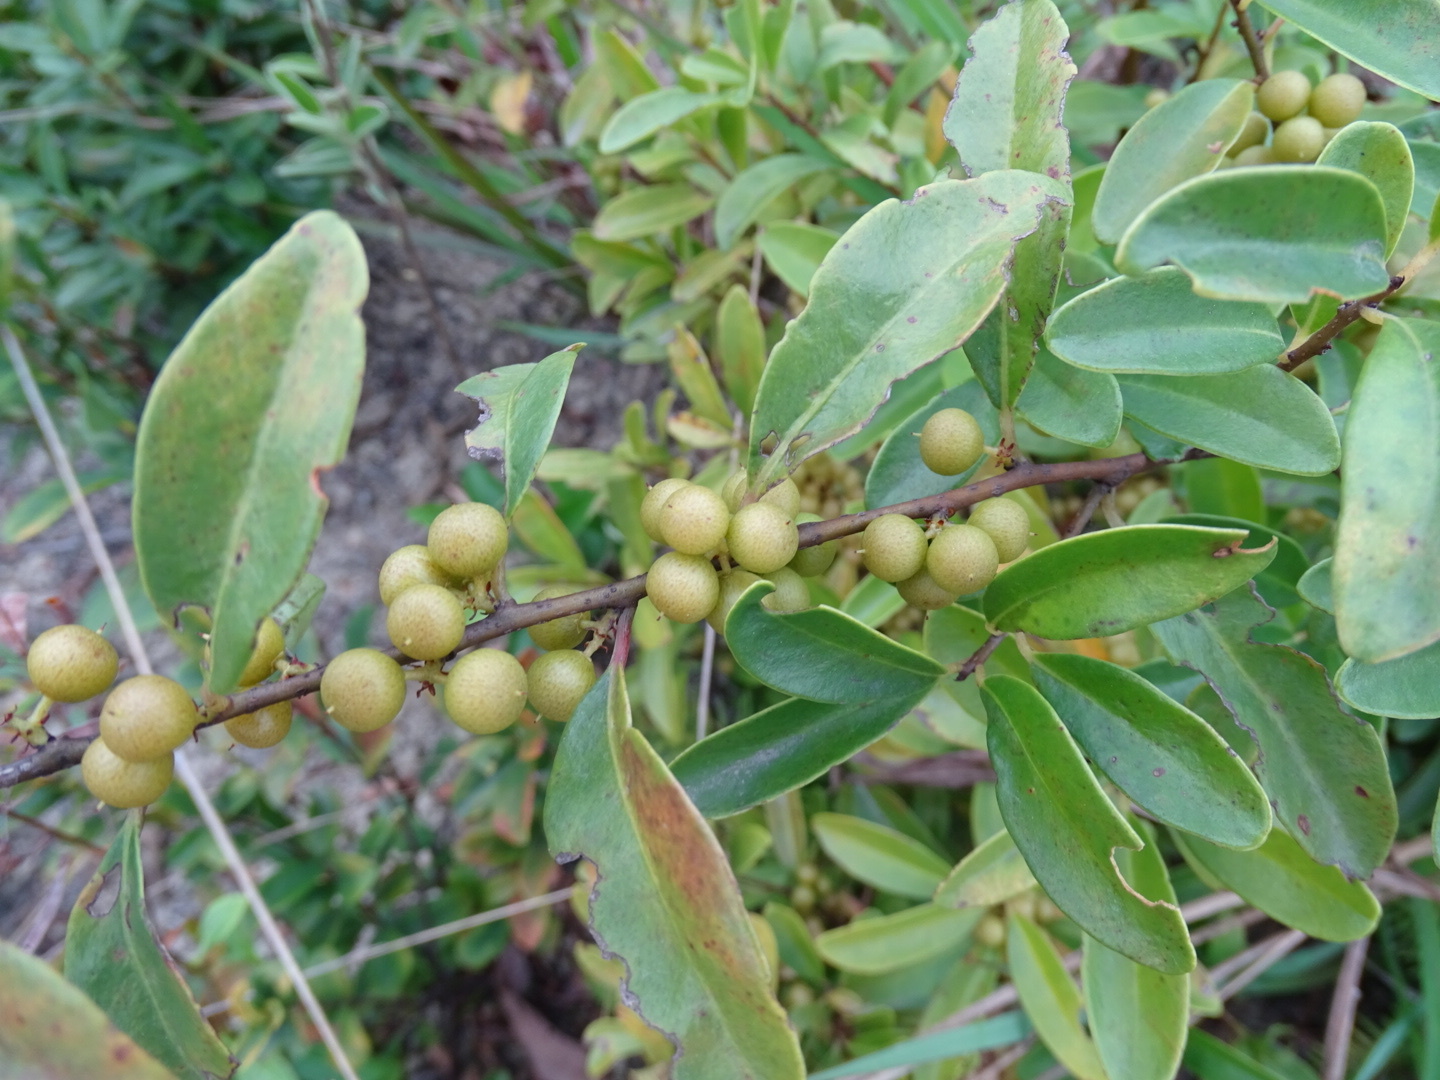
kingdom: Plantae
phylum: Tracheophyta
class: Magnoliopsida
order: Ericales
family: Primulaceae
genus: Embelia
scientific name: Embelia laeta
